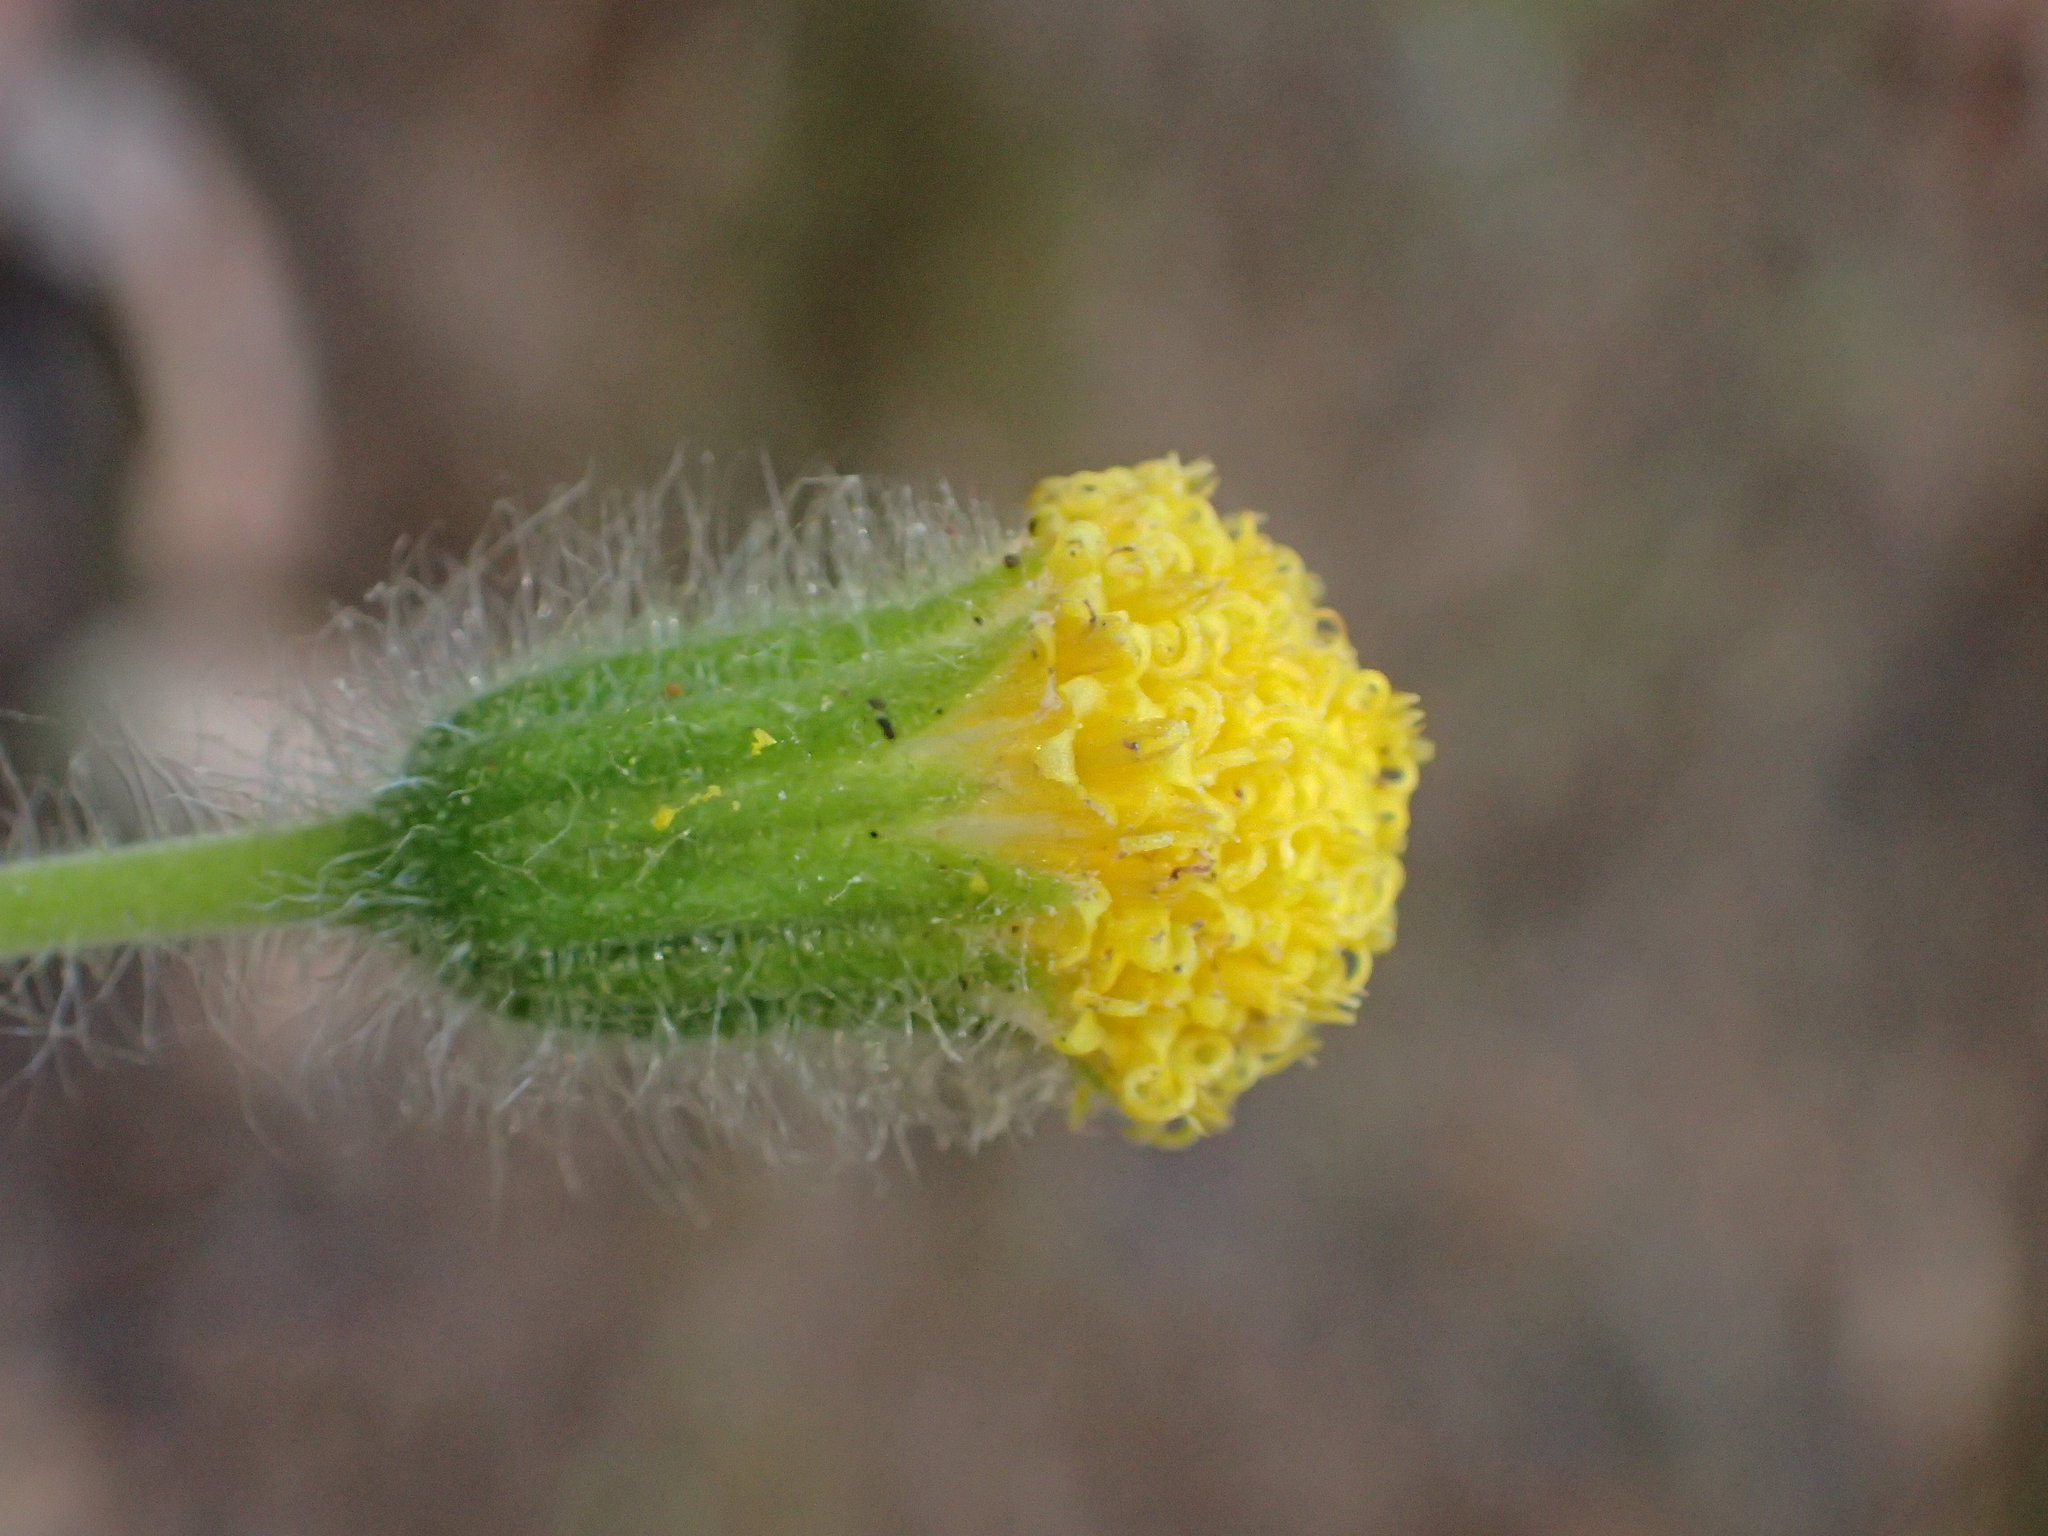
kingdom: Plantae
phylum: Tracheophyta
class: Magnoliopsida
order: Asterales
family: Asteraceae
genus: Arnica
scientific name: Arnica discoidea
